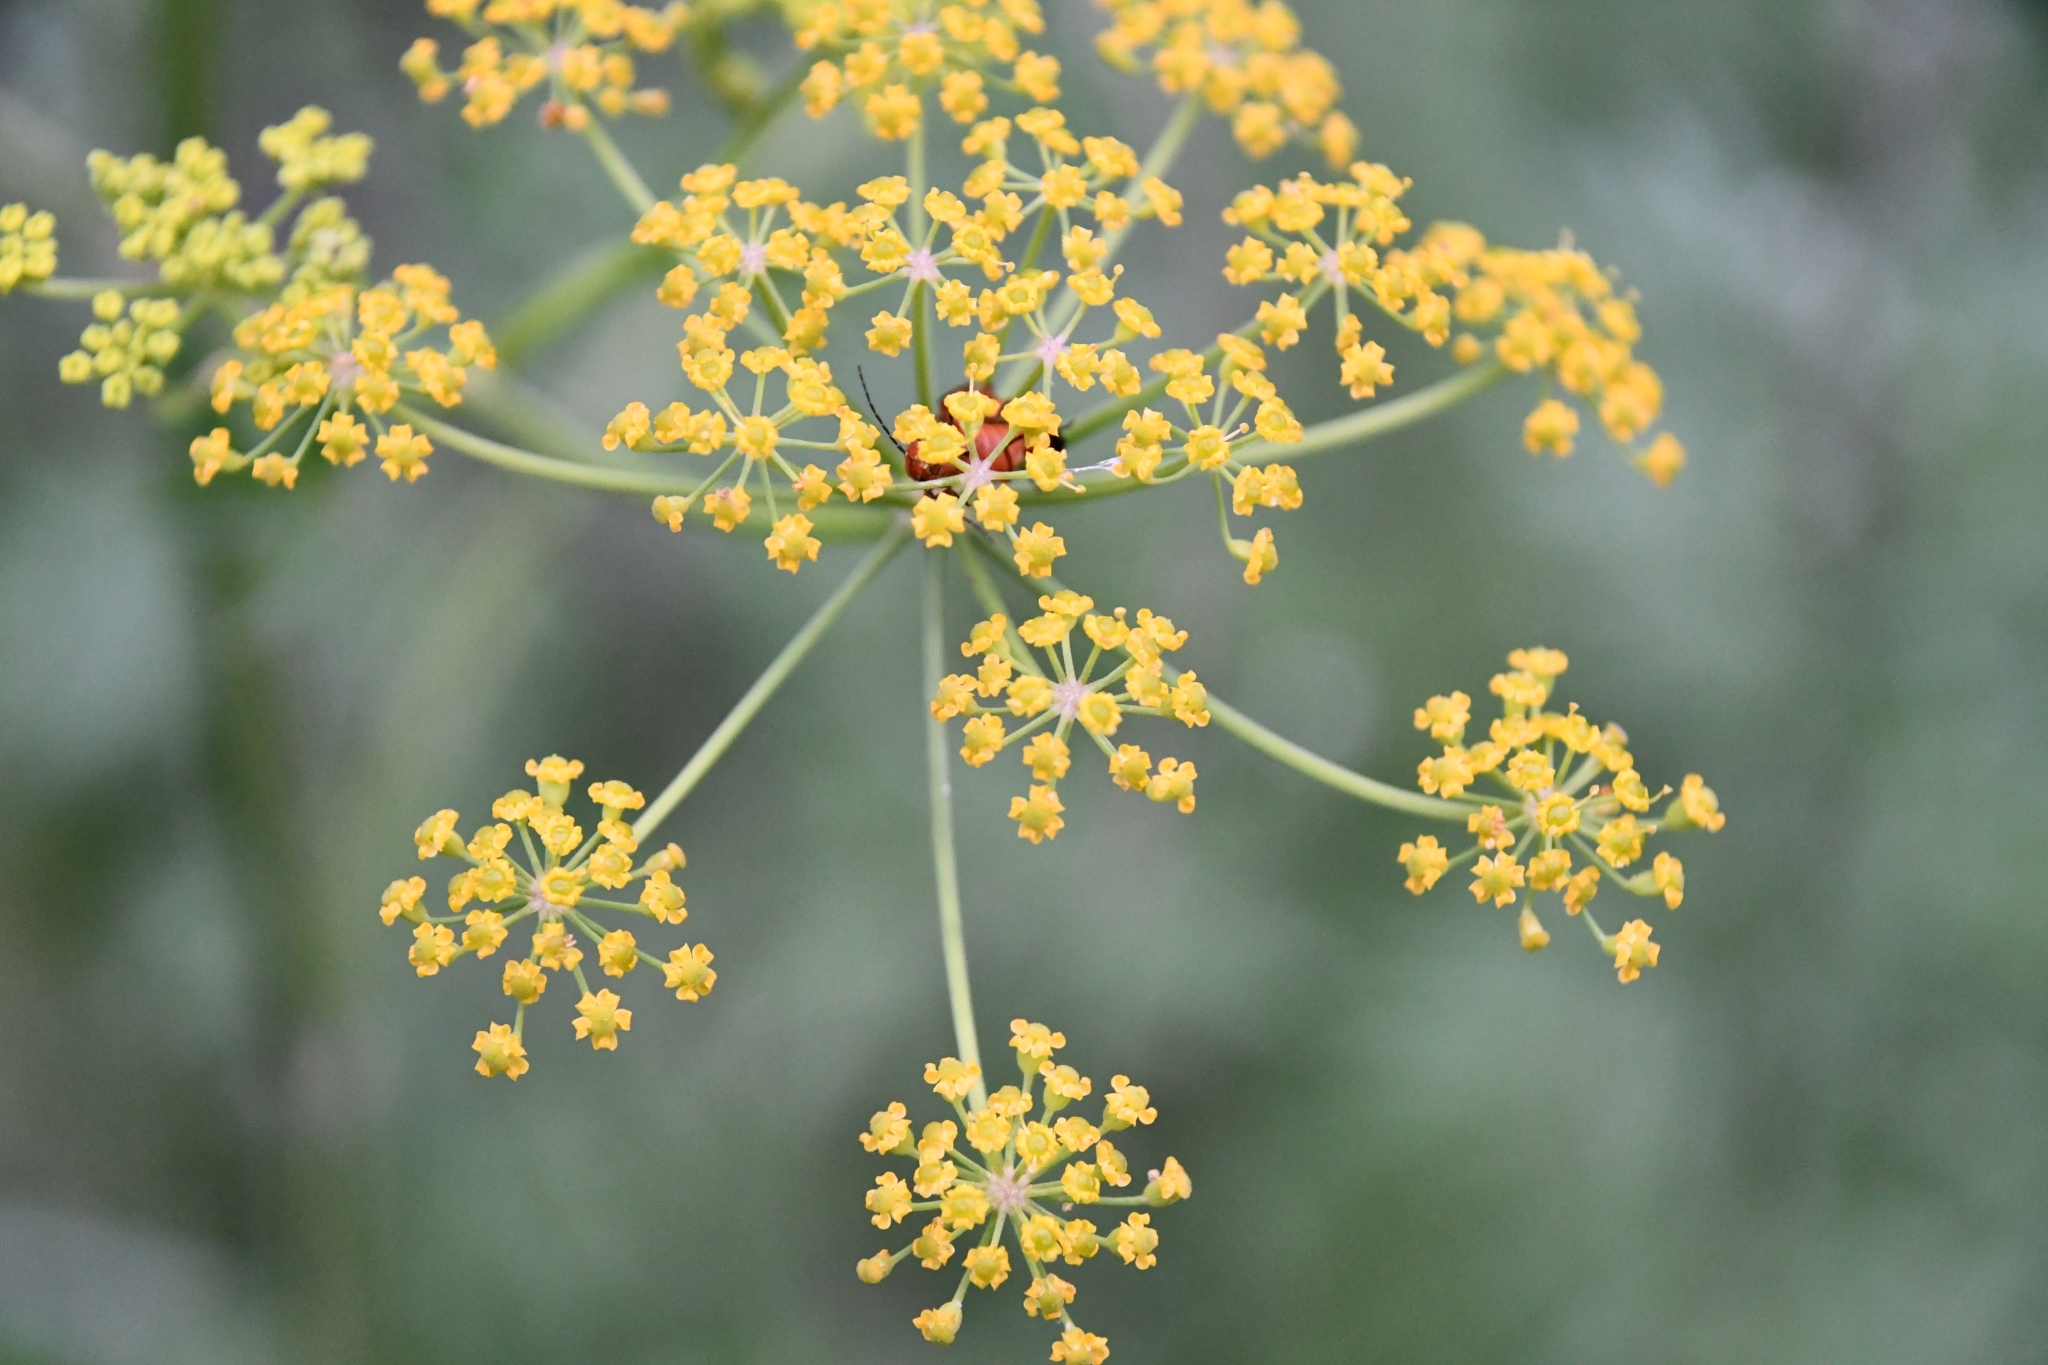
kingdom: Plantae
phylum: Tracheophyta
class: Magnoliopsida
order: Apiales
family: Apiaceae
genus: Pastinaca
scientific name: Pastinaca sativa
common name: Wild parsnip
